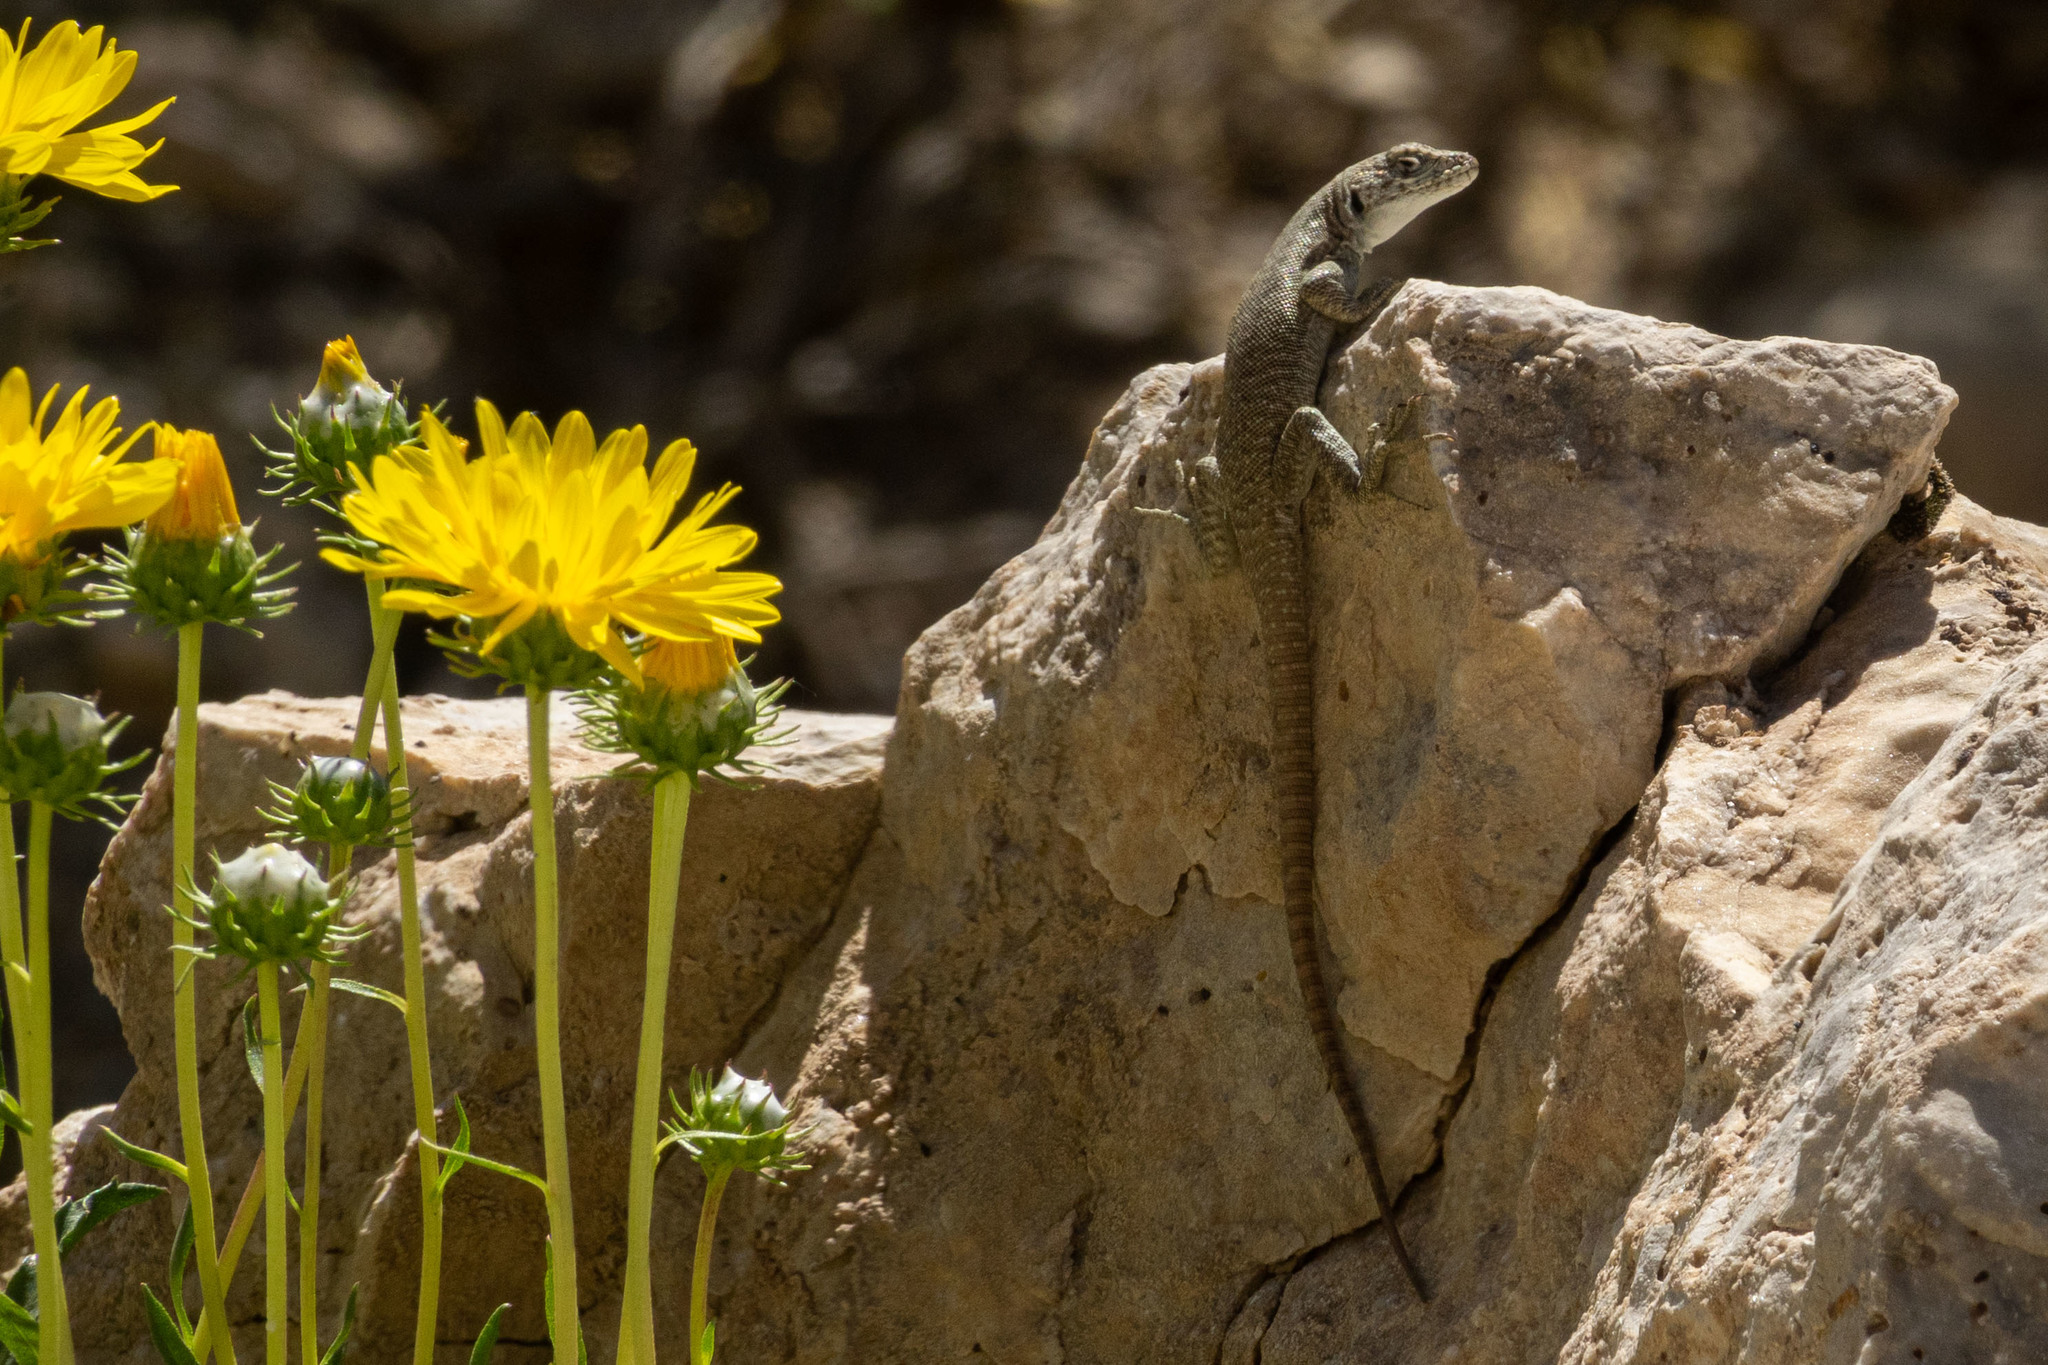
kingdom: Animalia
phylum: Chordata
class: Squamata
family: Liolaemidae
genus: Liolaemus
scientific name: Liolaemus austromendocinus
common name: Austromendocino tree iguana
